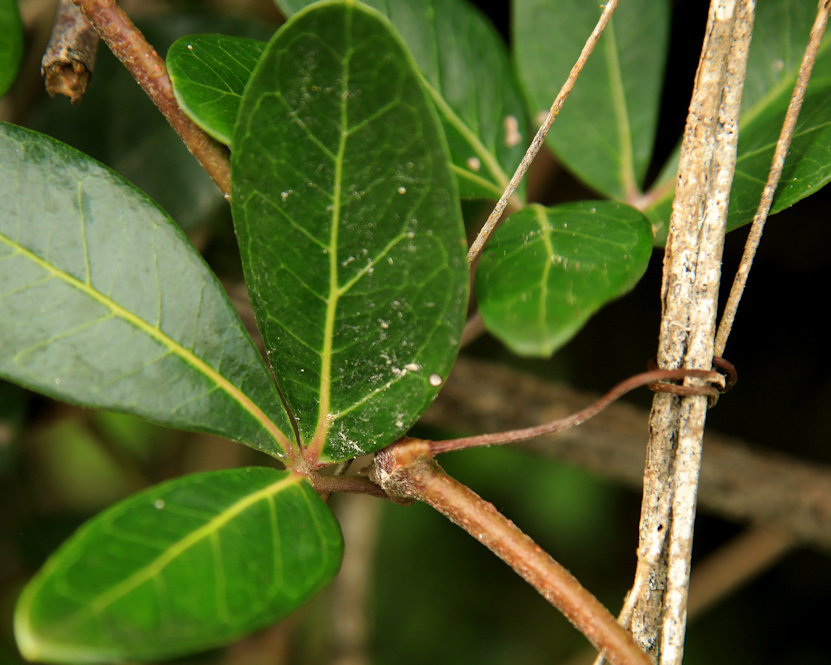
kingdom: Plantae
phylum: Tracheophyta
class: Magnoliopsida
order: Vitales
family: Vitaceae
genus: Rhoicissus
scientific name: Rhoicissus digitata
